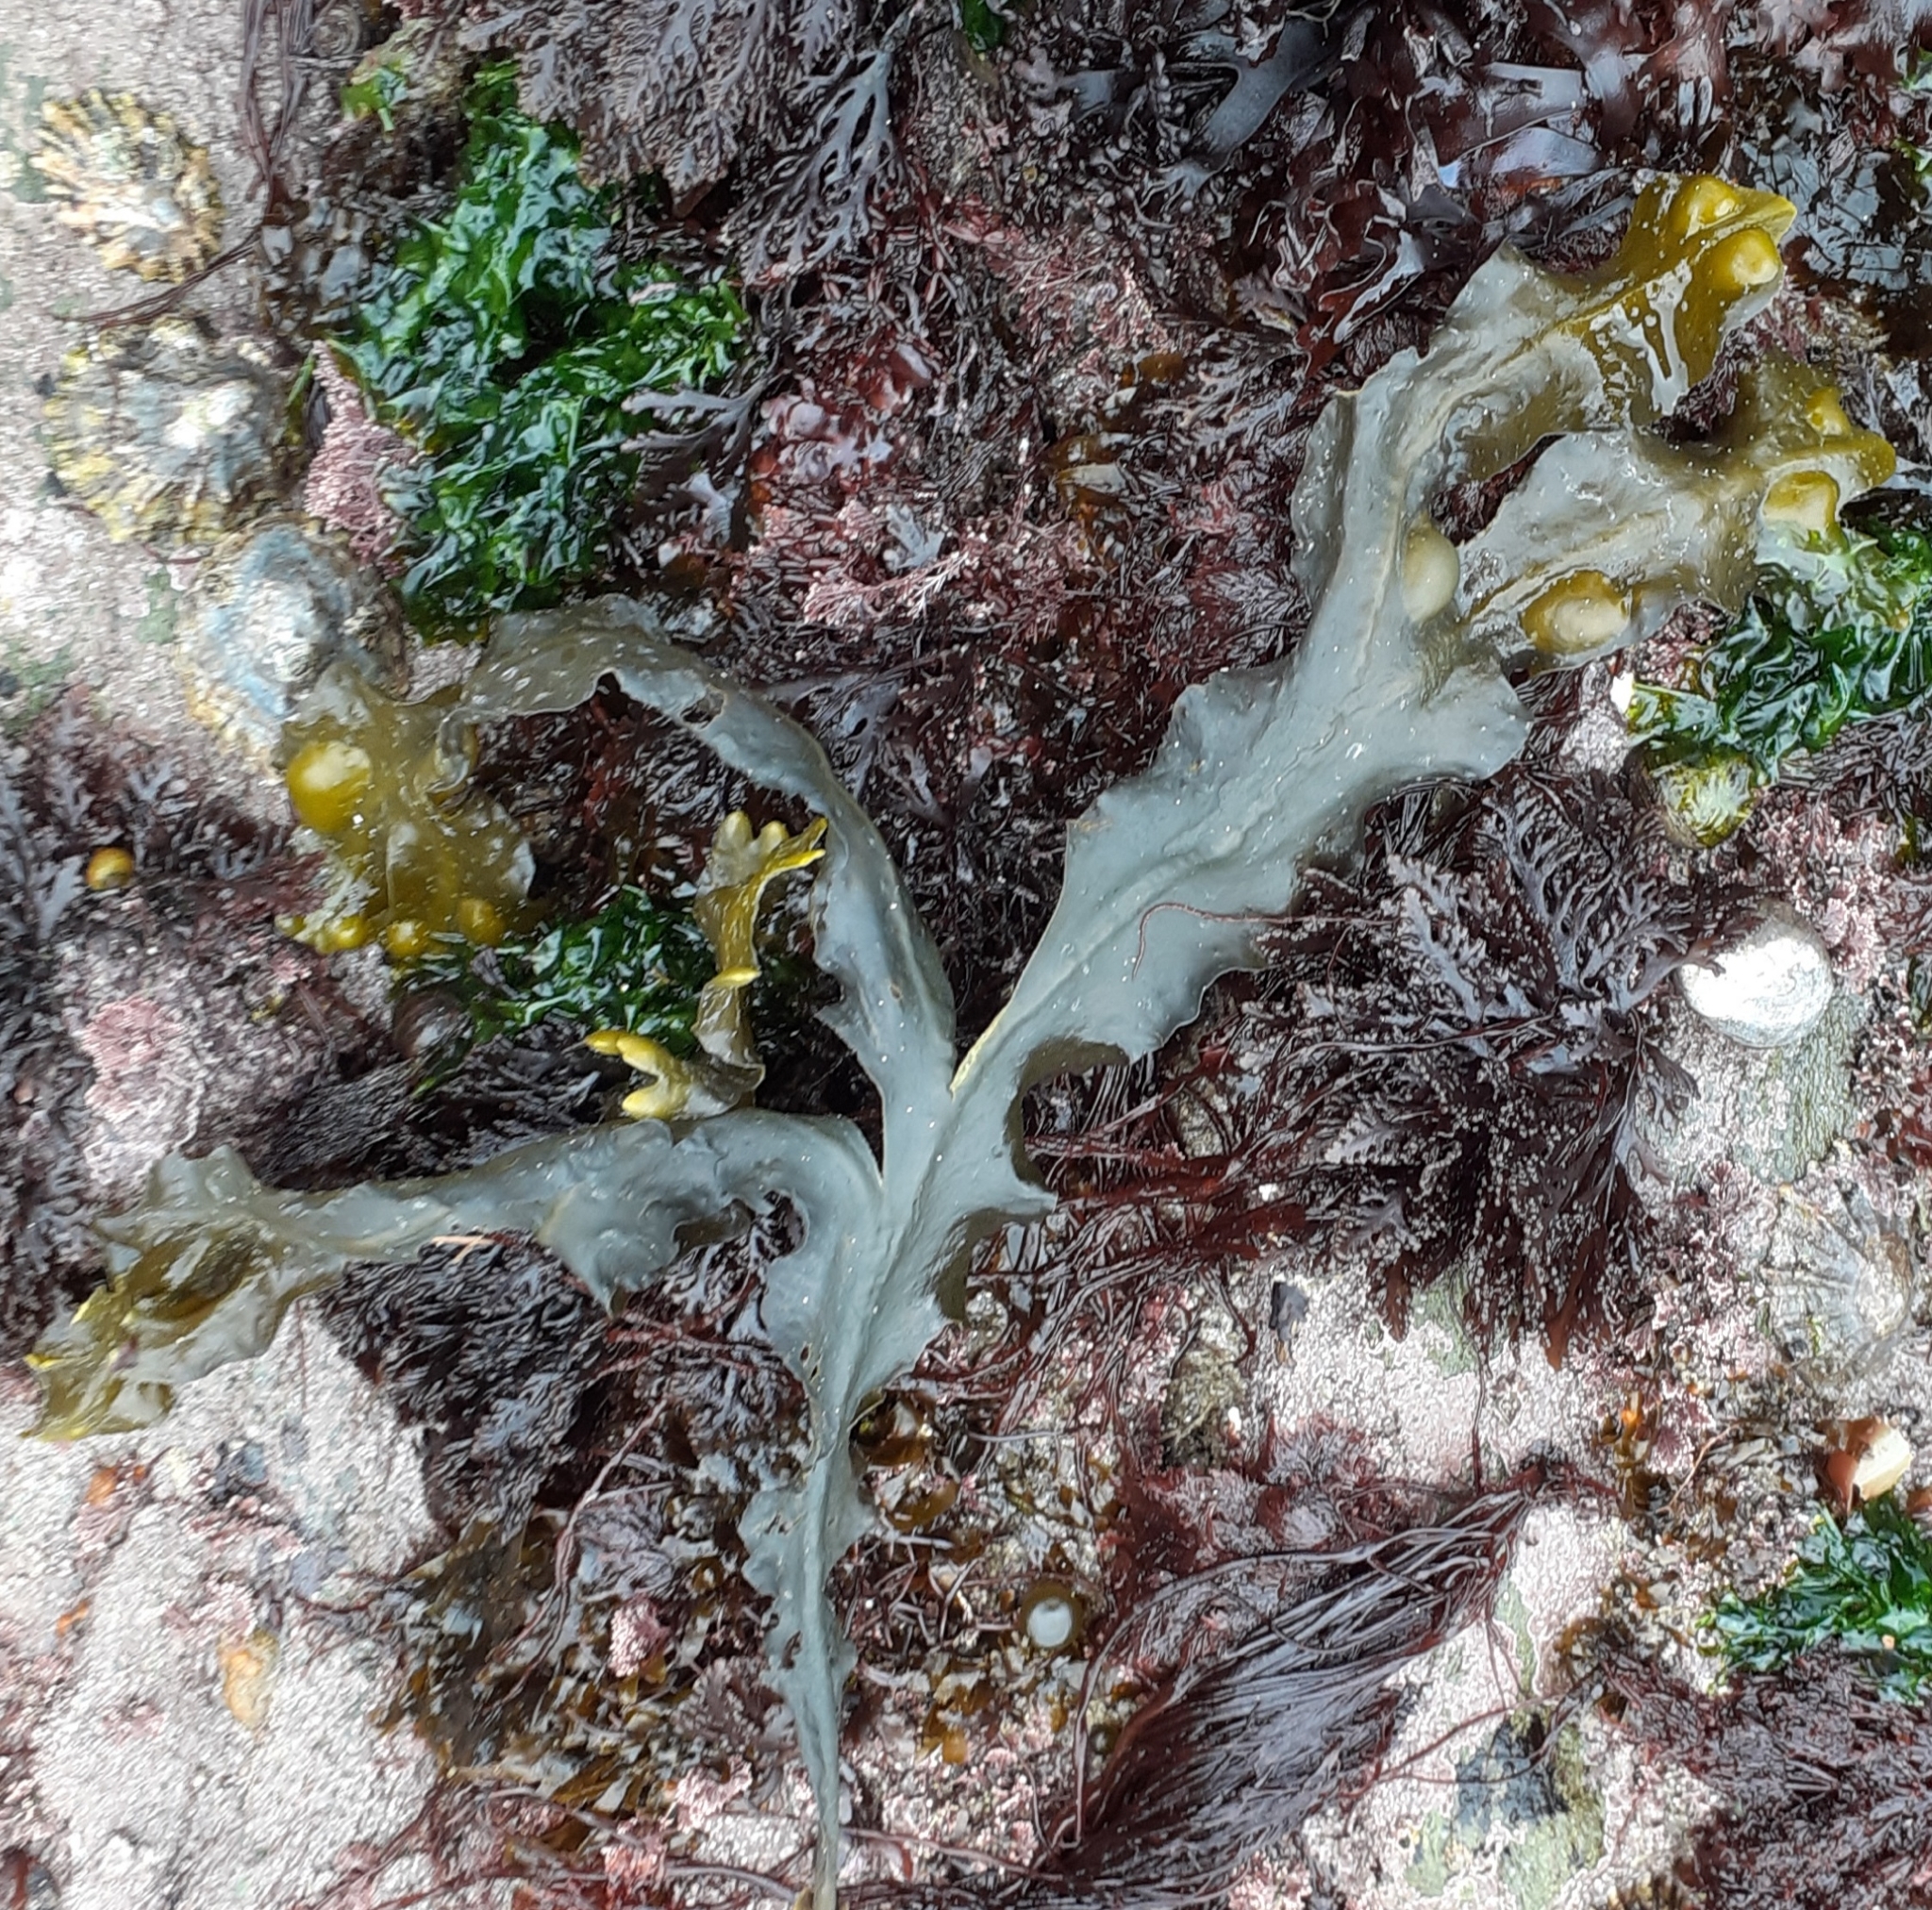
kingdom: Chromista
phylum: Ochrophyta
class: Phaeophyceae
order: Fucales
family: Fucaceae
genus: Fucus
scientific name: Fucus vesiculosus
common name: Bladder wrack
